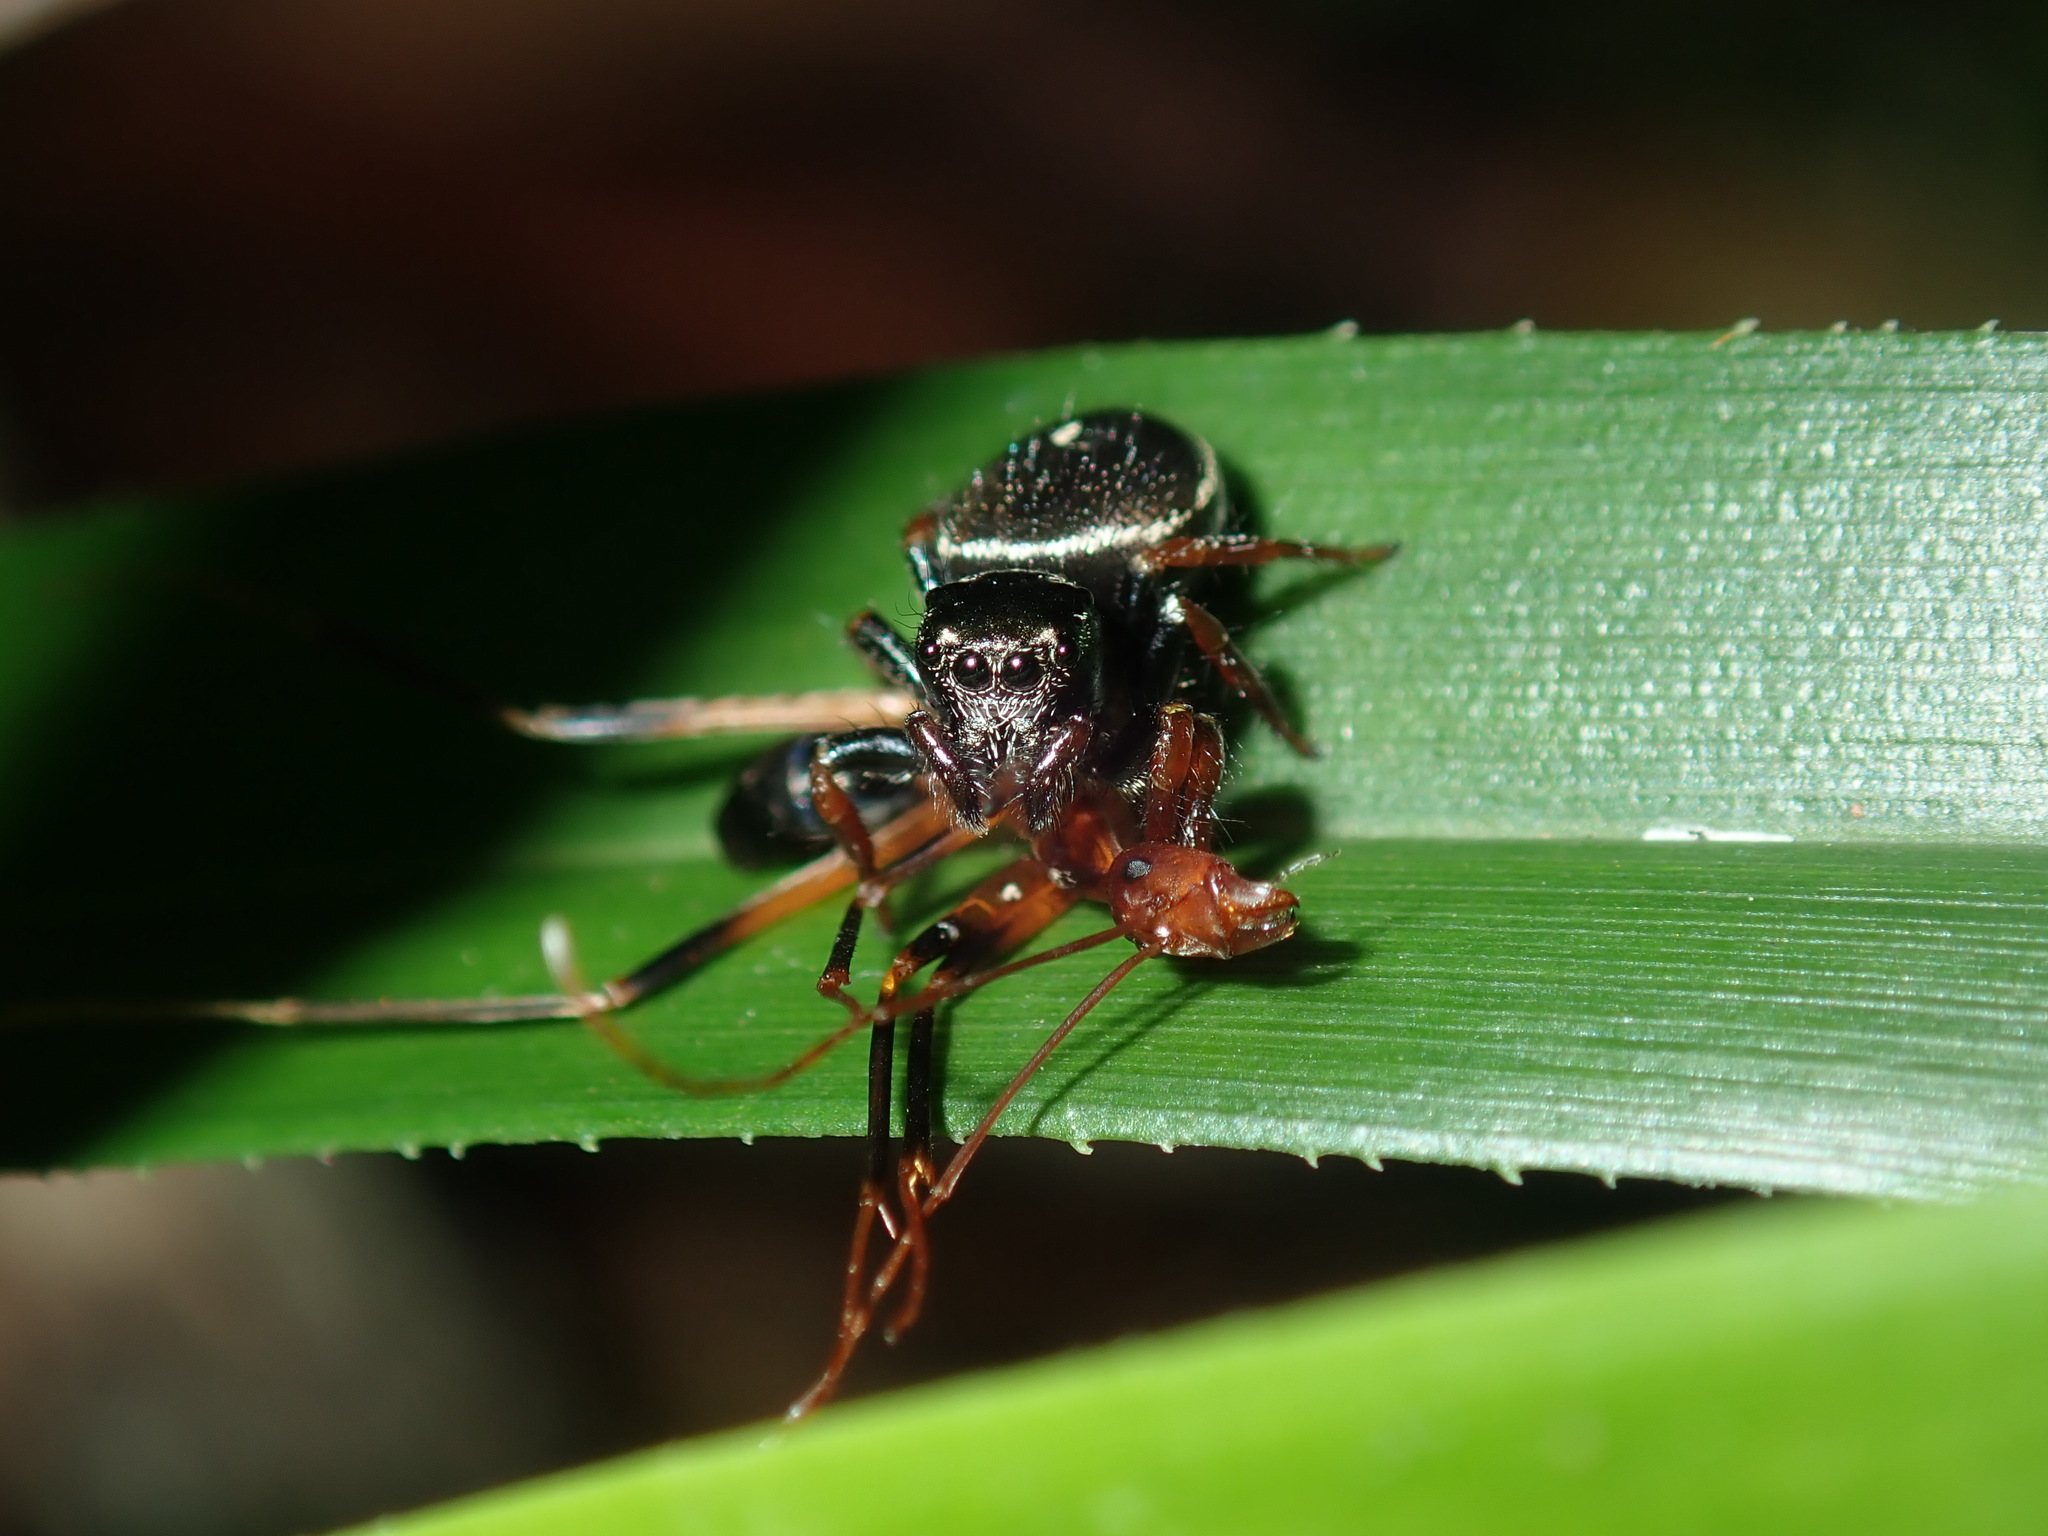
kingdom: Animalia
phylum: Arthropoda
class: Arachnida
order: Araneae
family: Salticidae
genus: Zenodorus
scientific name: Zenodorus orbiculatus
